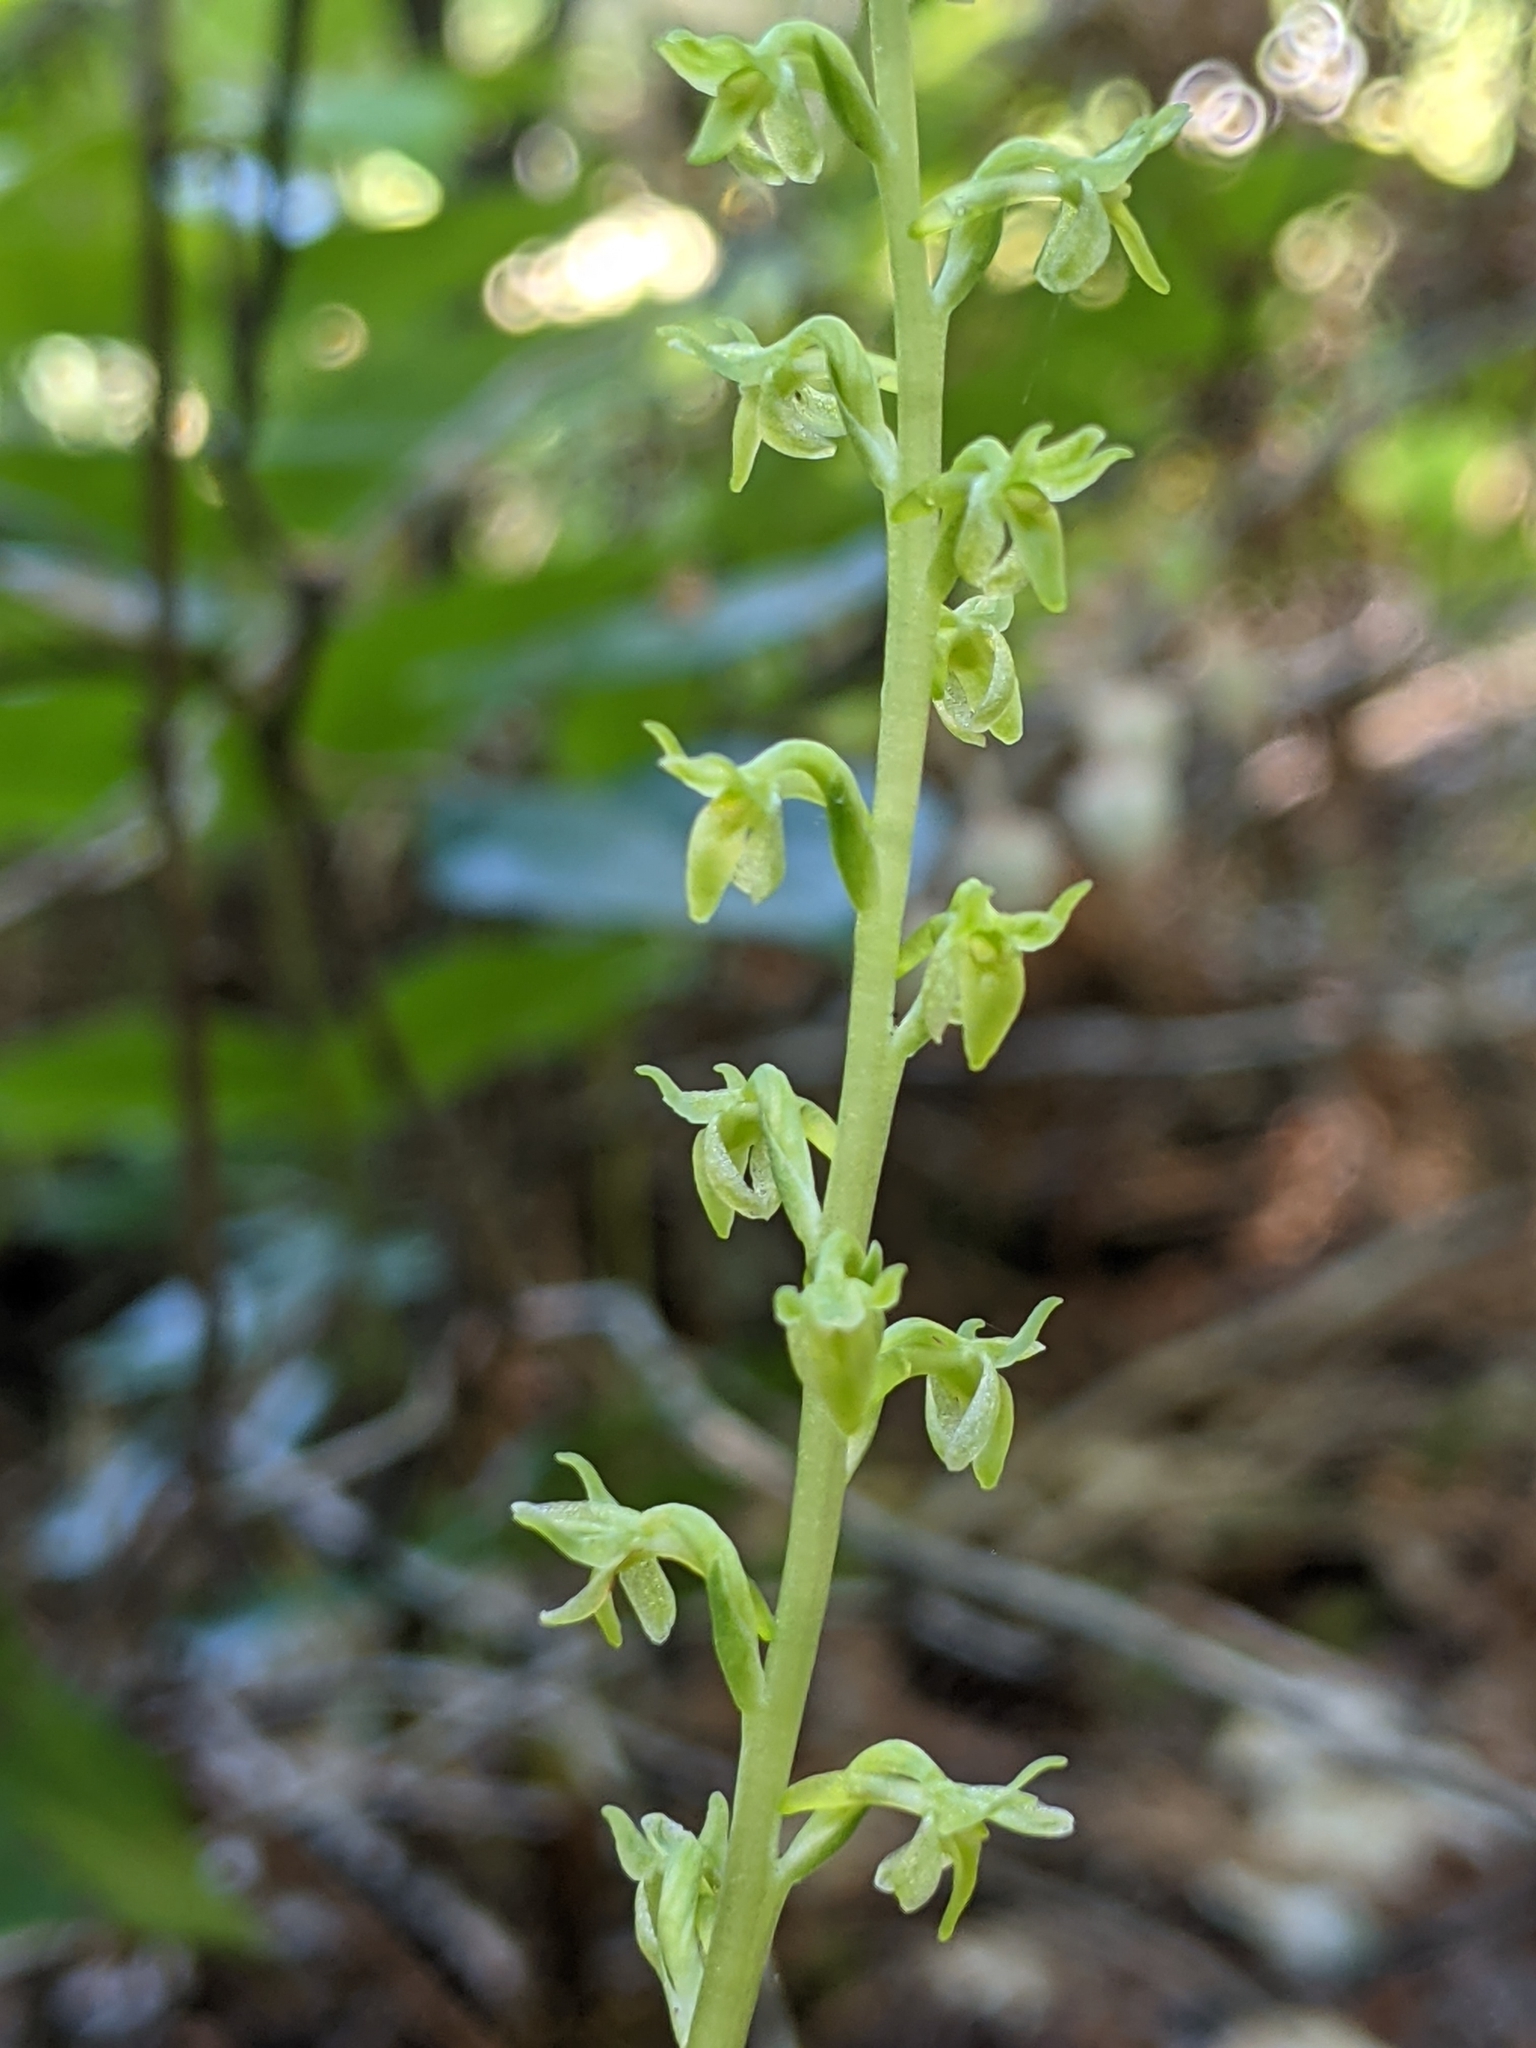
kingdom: Plantae
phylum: Tracheophyta
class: Liliopsida
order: Asparagales
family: Orchidaceae
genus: Platanthera
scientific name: Platanthera unalascensis
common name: Alaska bog orchid
